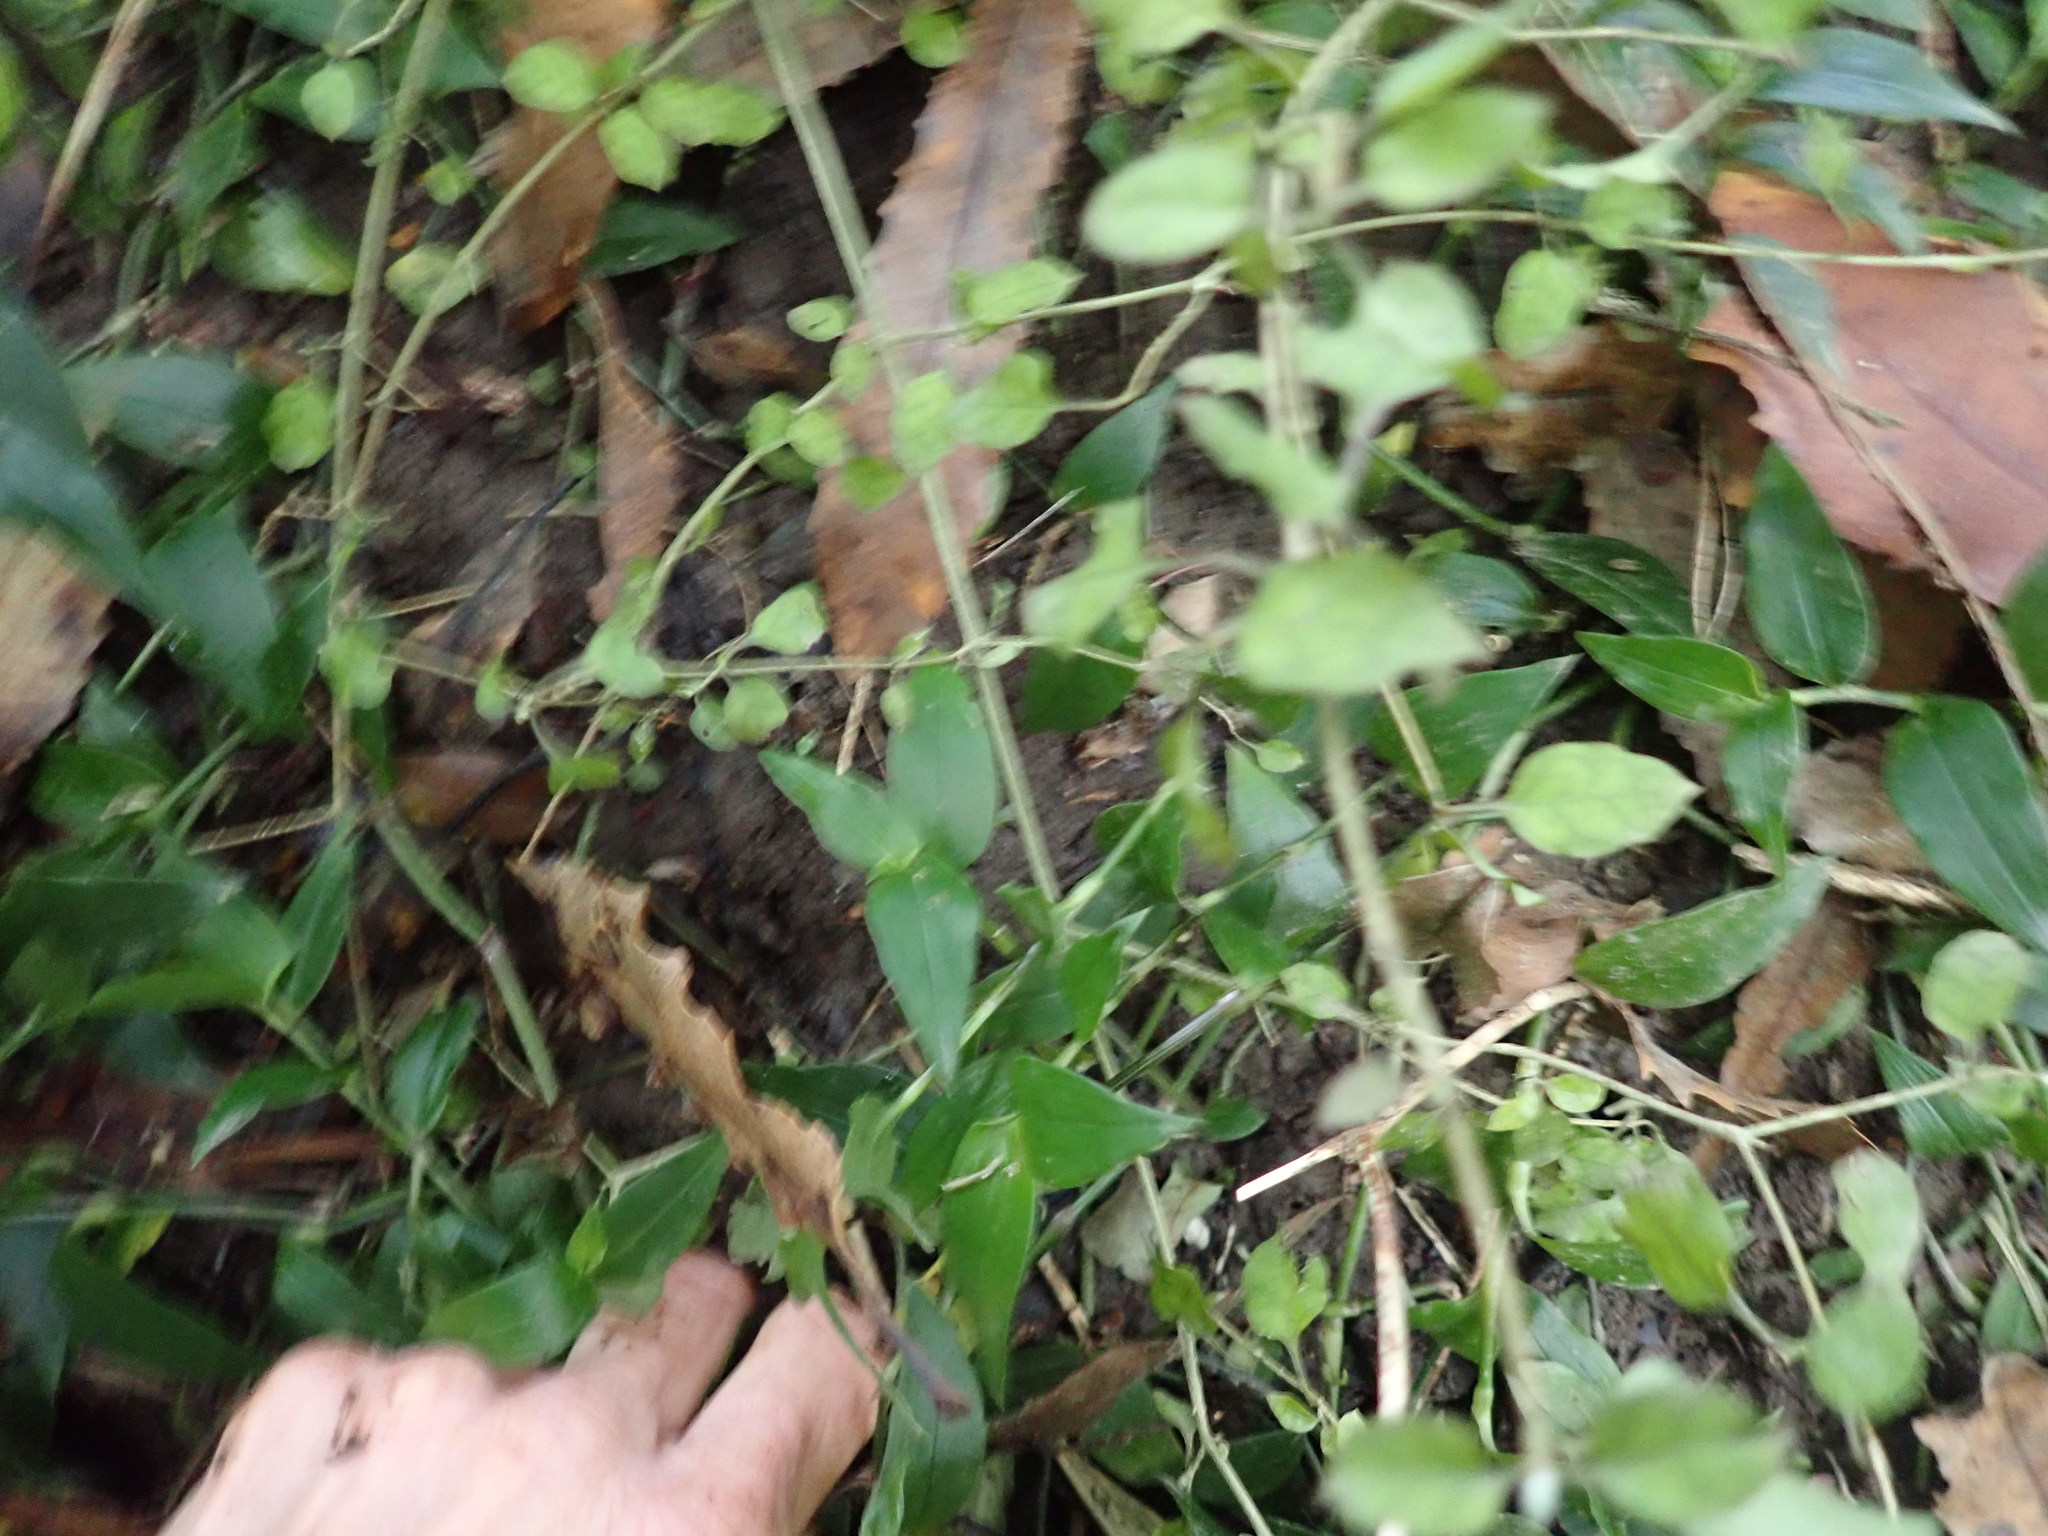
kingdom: Plantae
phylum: Tracheophyta
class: Magnoliopsida
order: Gentianales
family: Rubiaceae
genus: Coprosma
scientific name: Coprosma areolata
